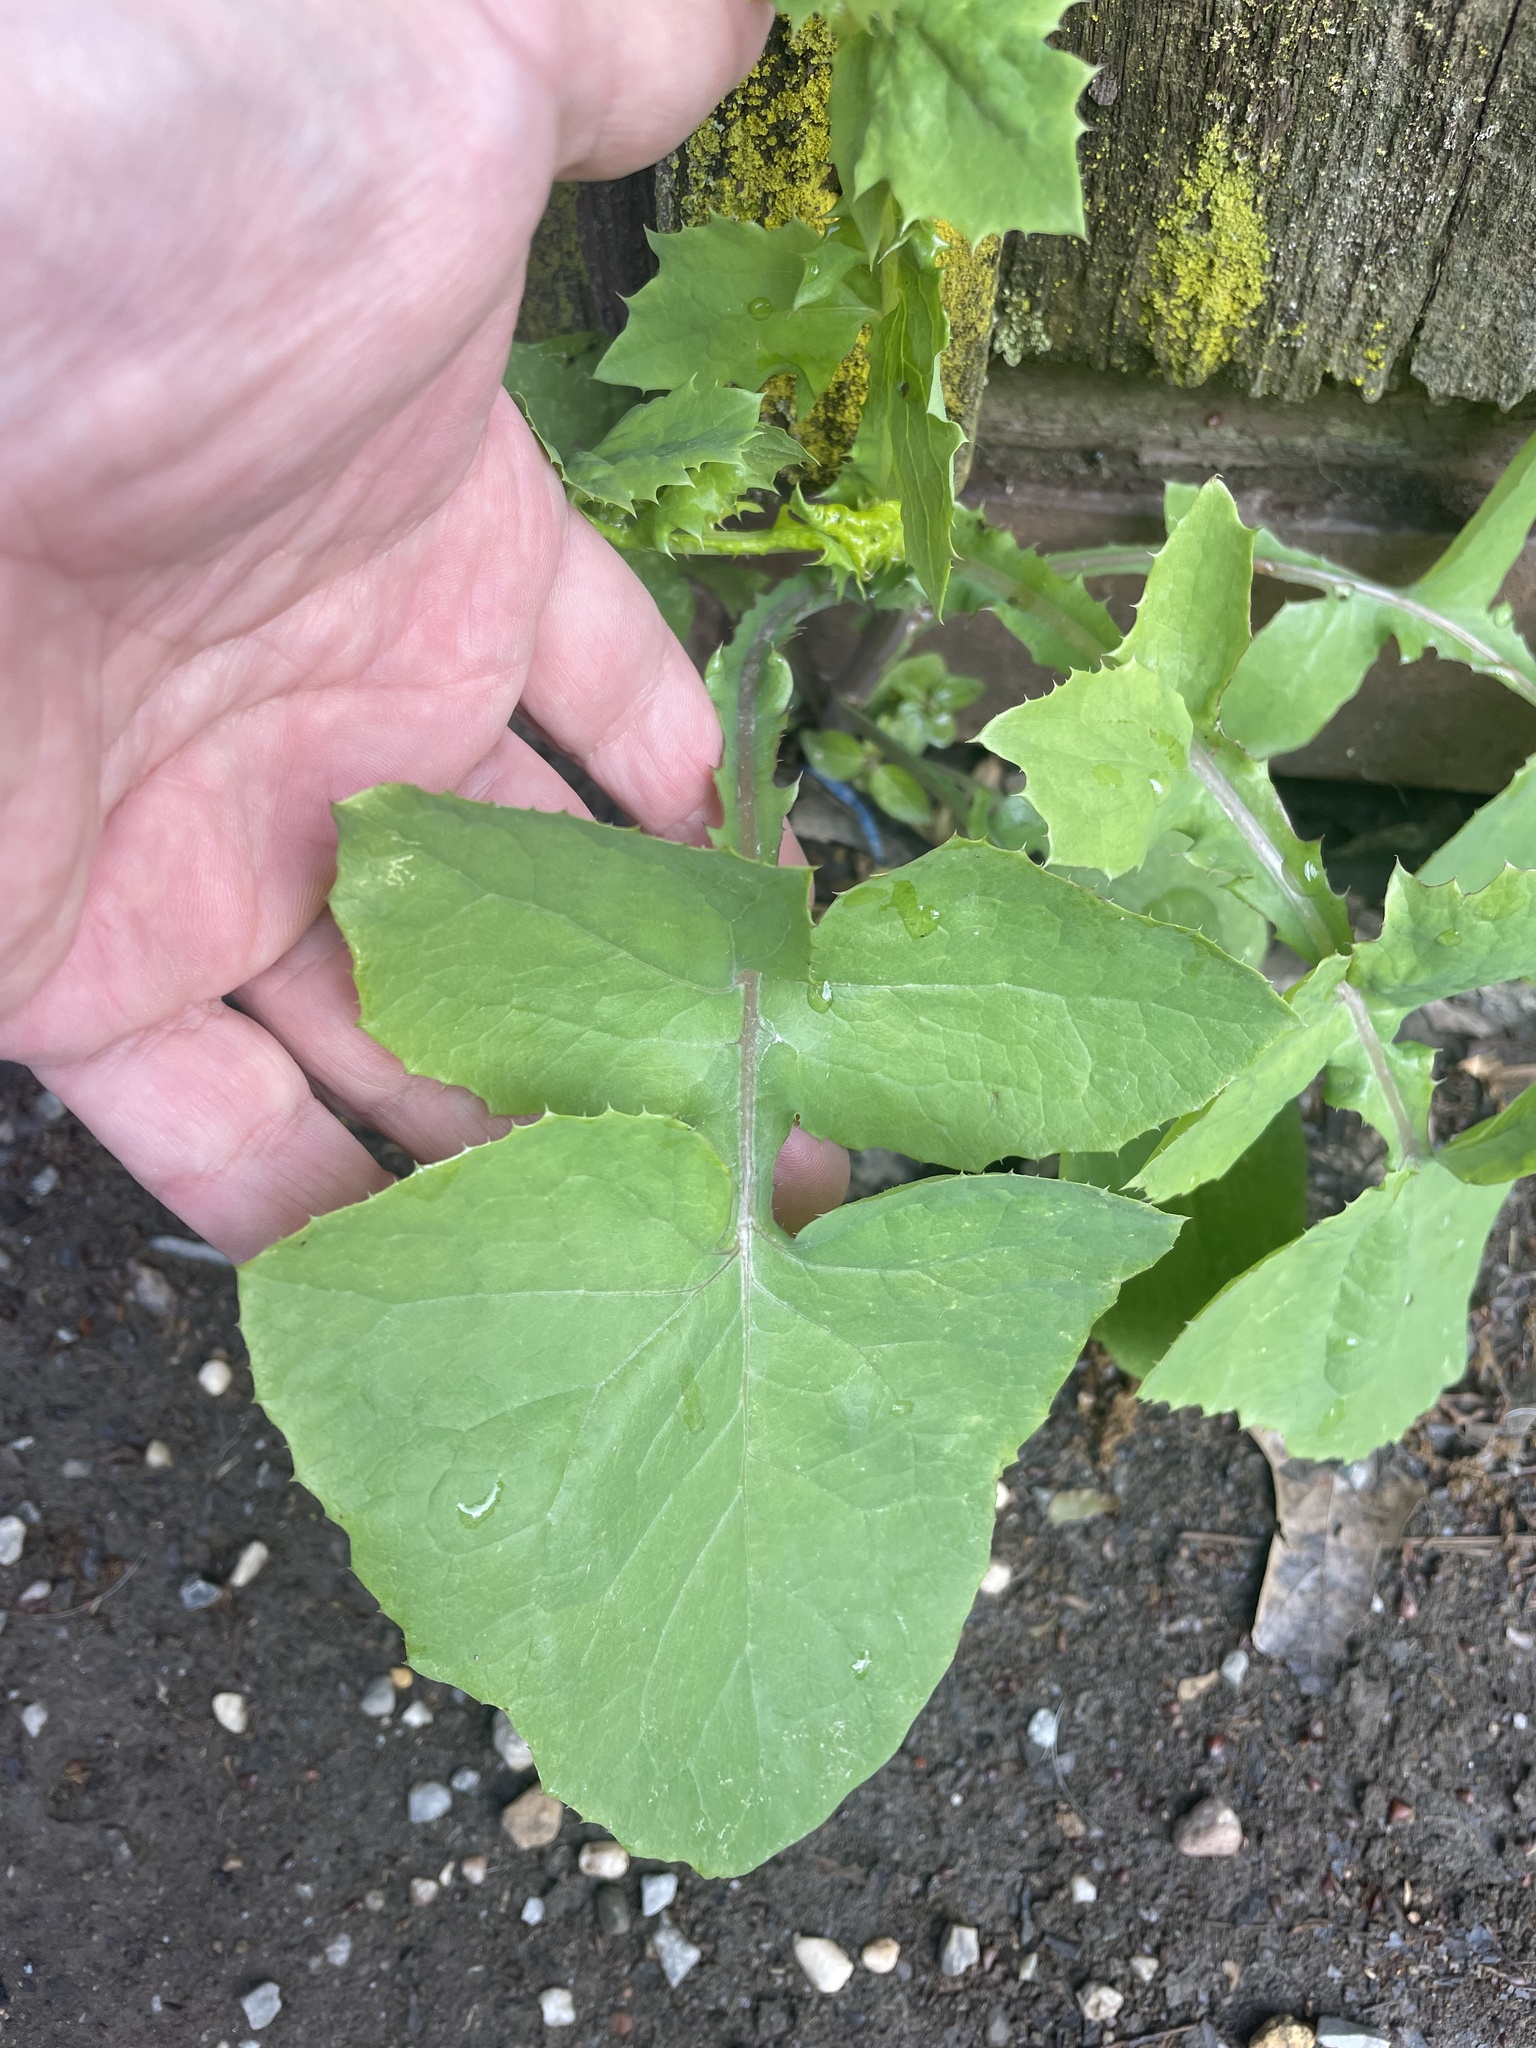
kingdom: Plantae
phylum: Tracheophyta
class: Magnoliopsida
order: Asterales
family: Asteraceae
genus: Sonchus
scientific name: Sonchus oleraceus
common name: Common sowthistle
